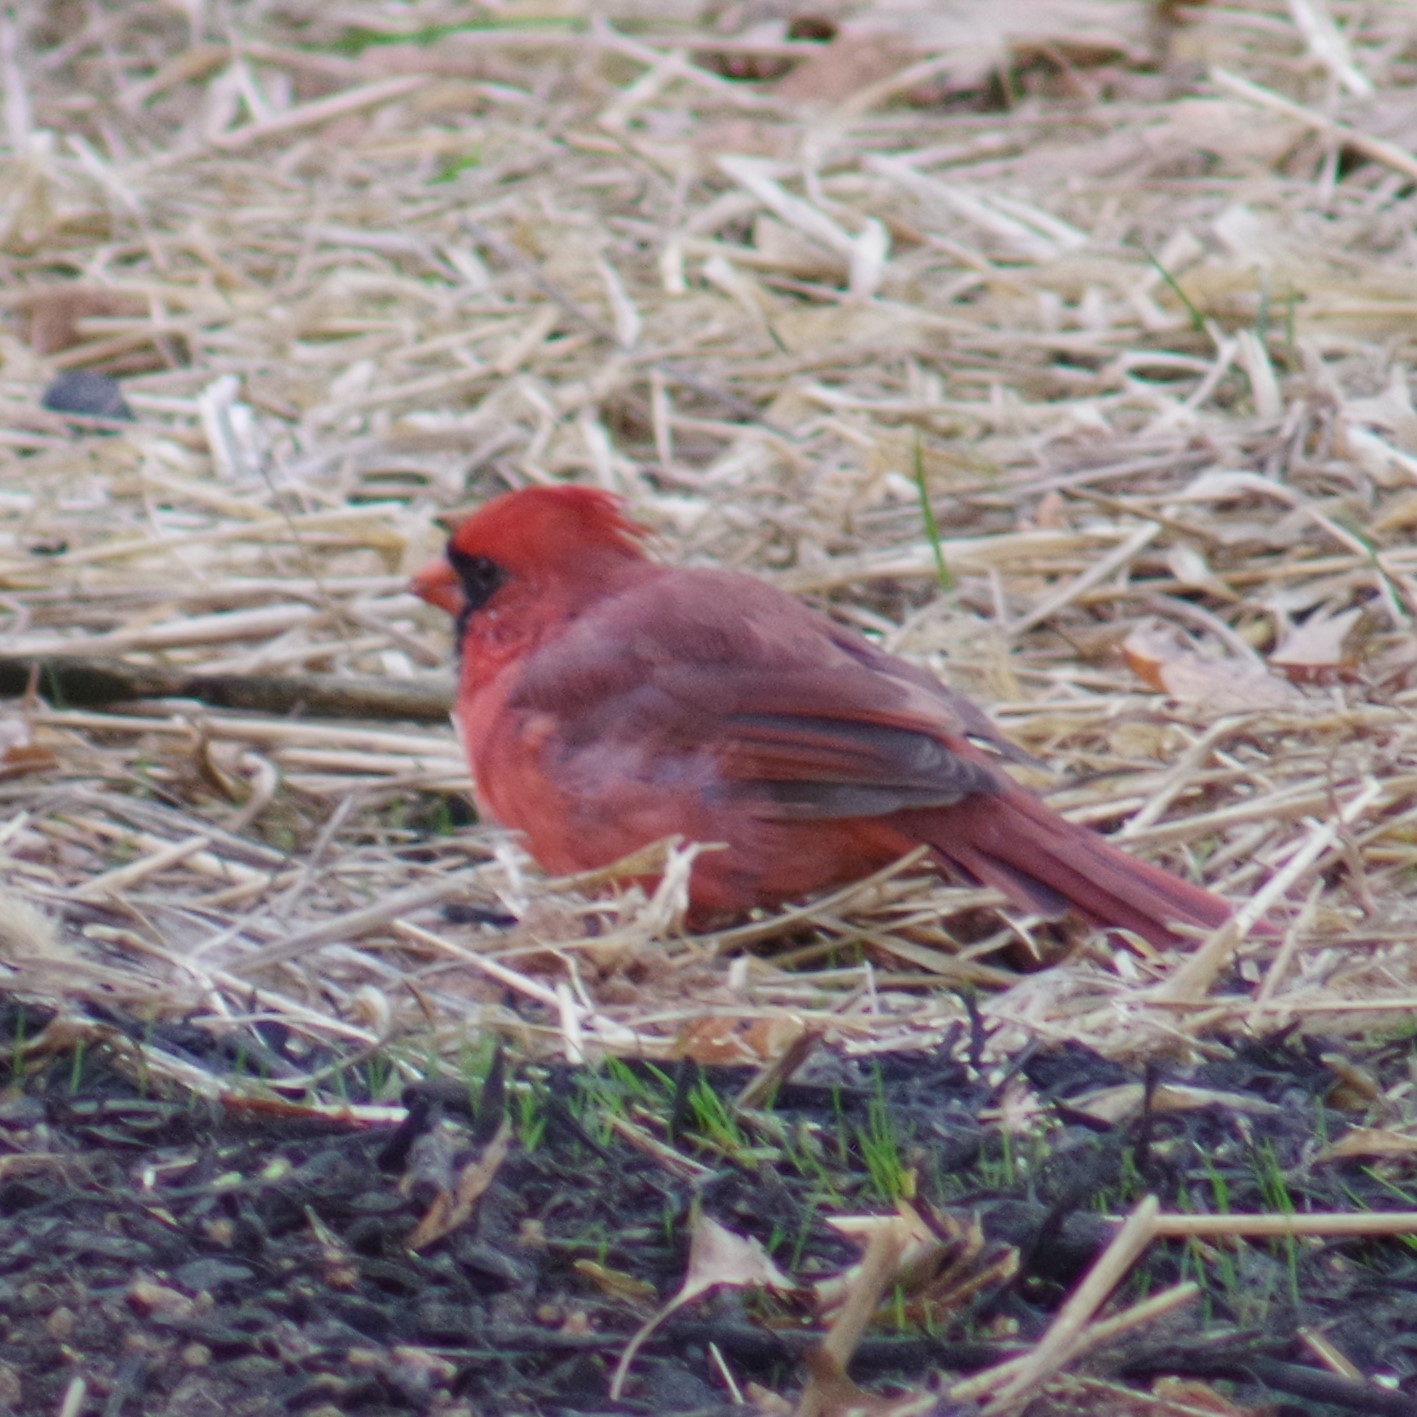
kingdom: Animalia
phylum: Chordata
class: Aves
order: Passeriformes
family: Cardinalidae
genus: Cardinalis
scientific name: Cardinalis cardinalis
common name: Northern cardinal
